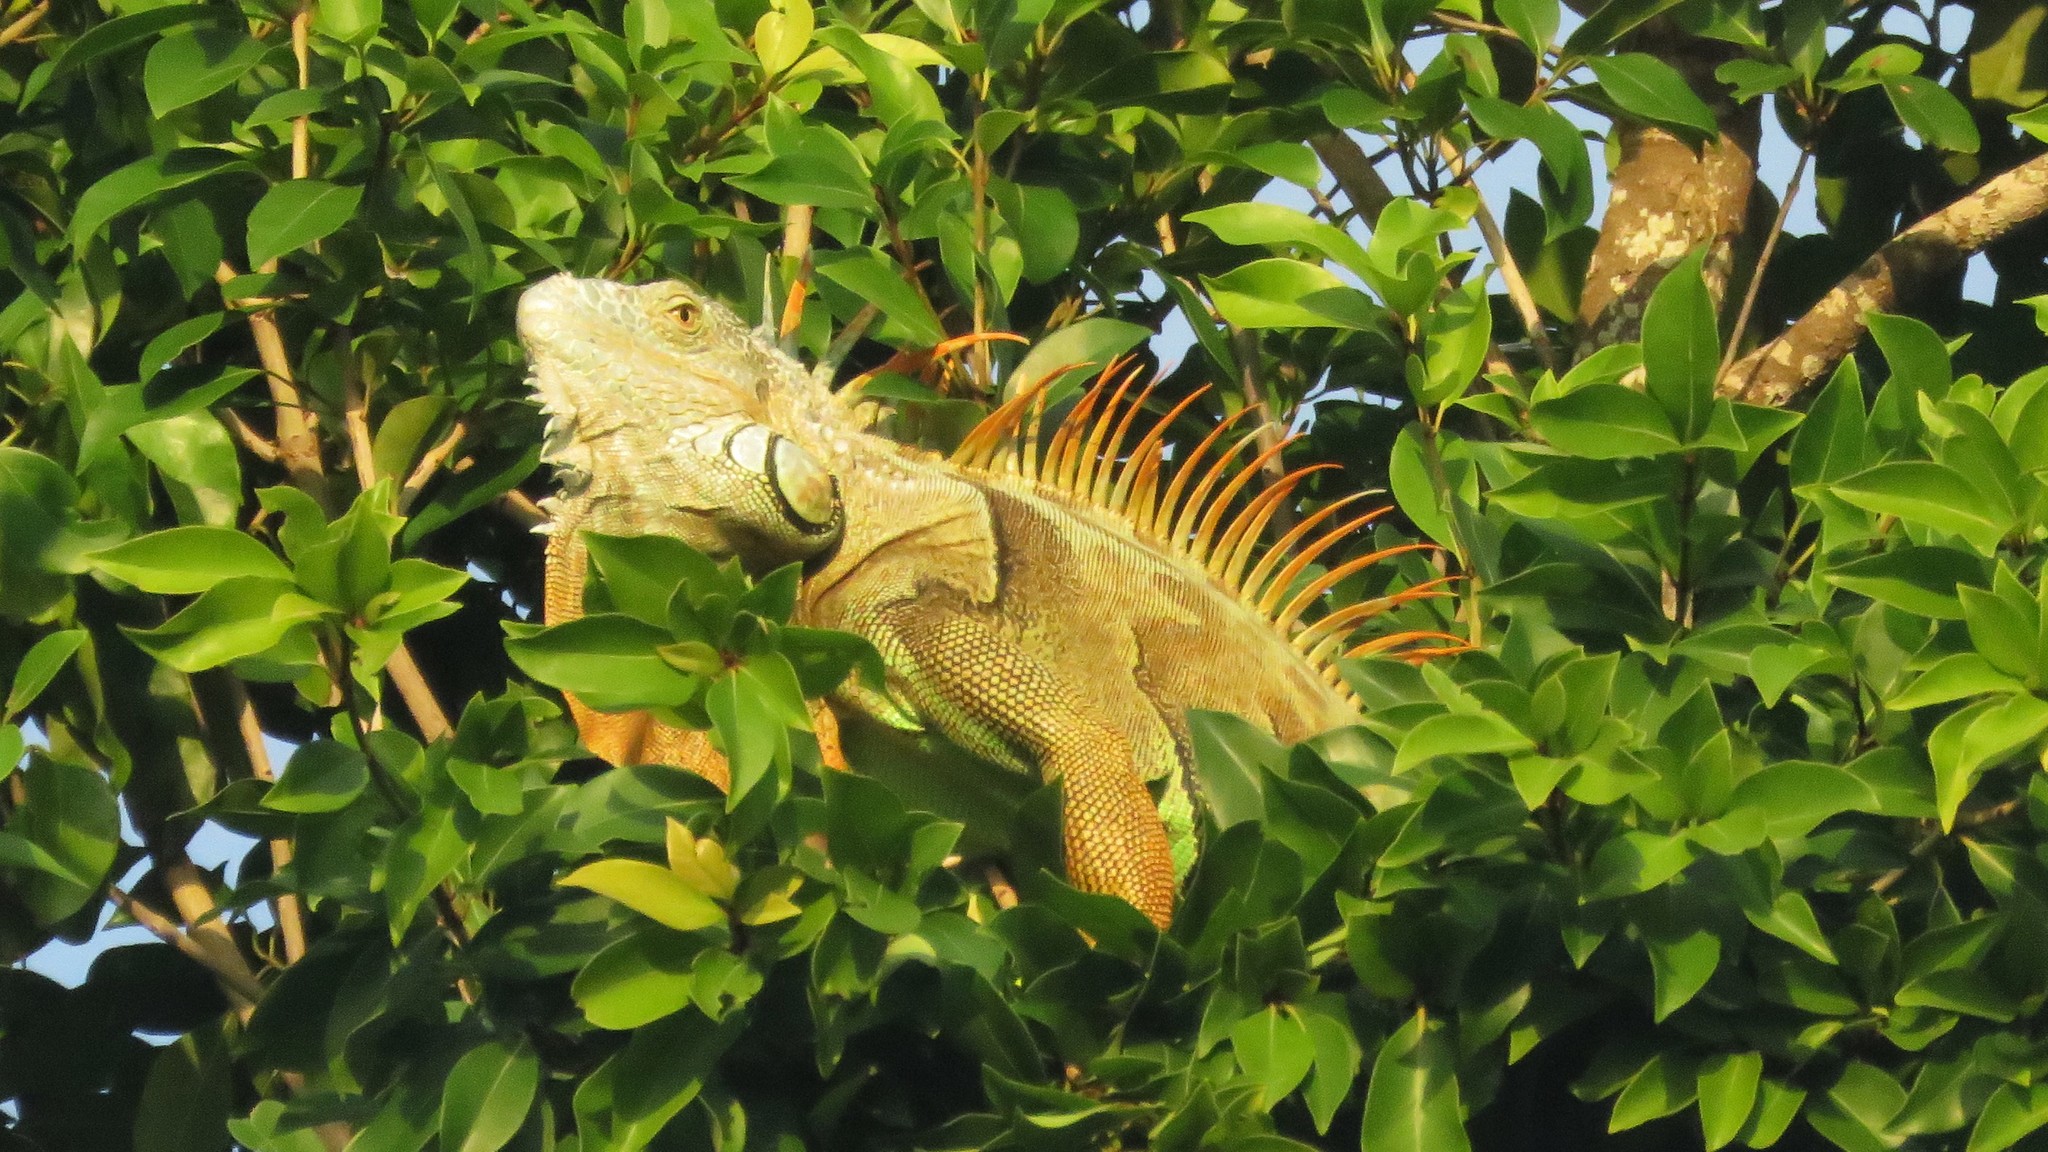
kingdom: Animalia
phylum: Chordata
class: Squamata
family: Iguanidae
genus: Iguana
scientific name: Iguana iguana
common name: Green iguana
